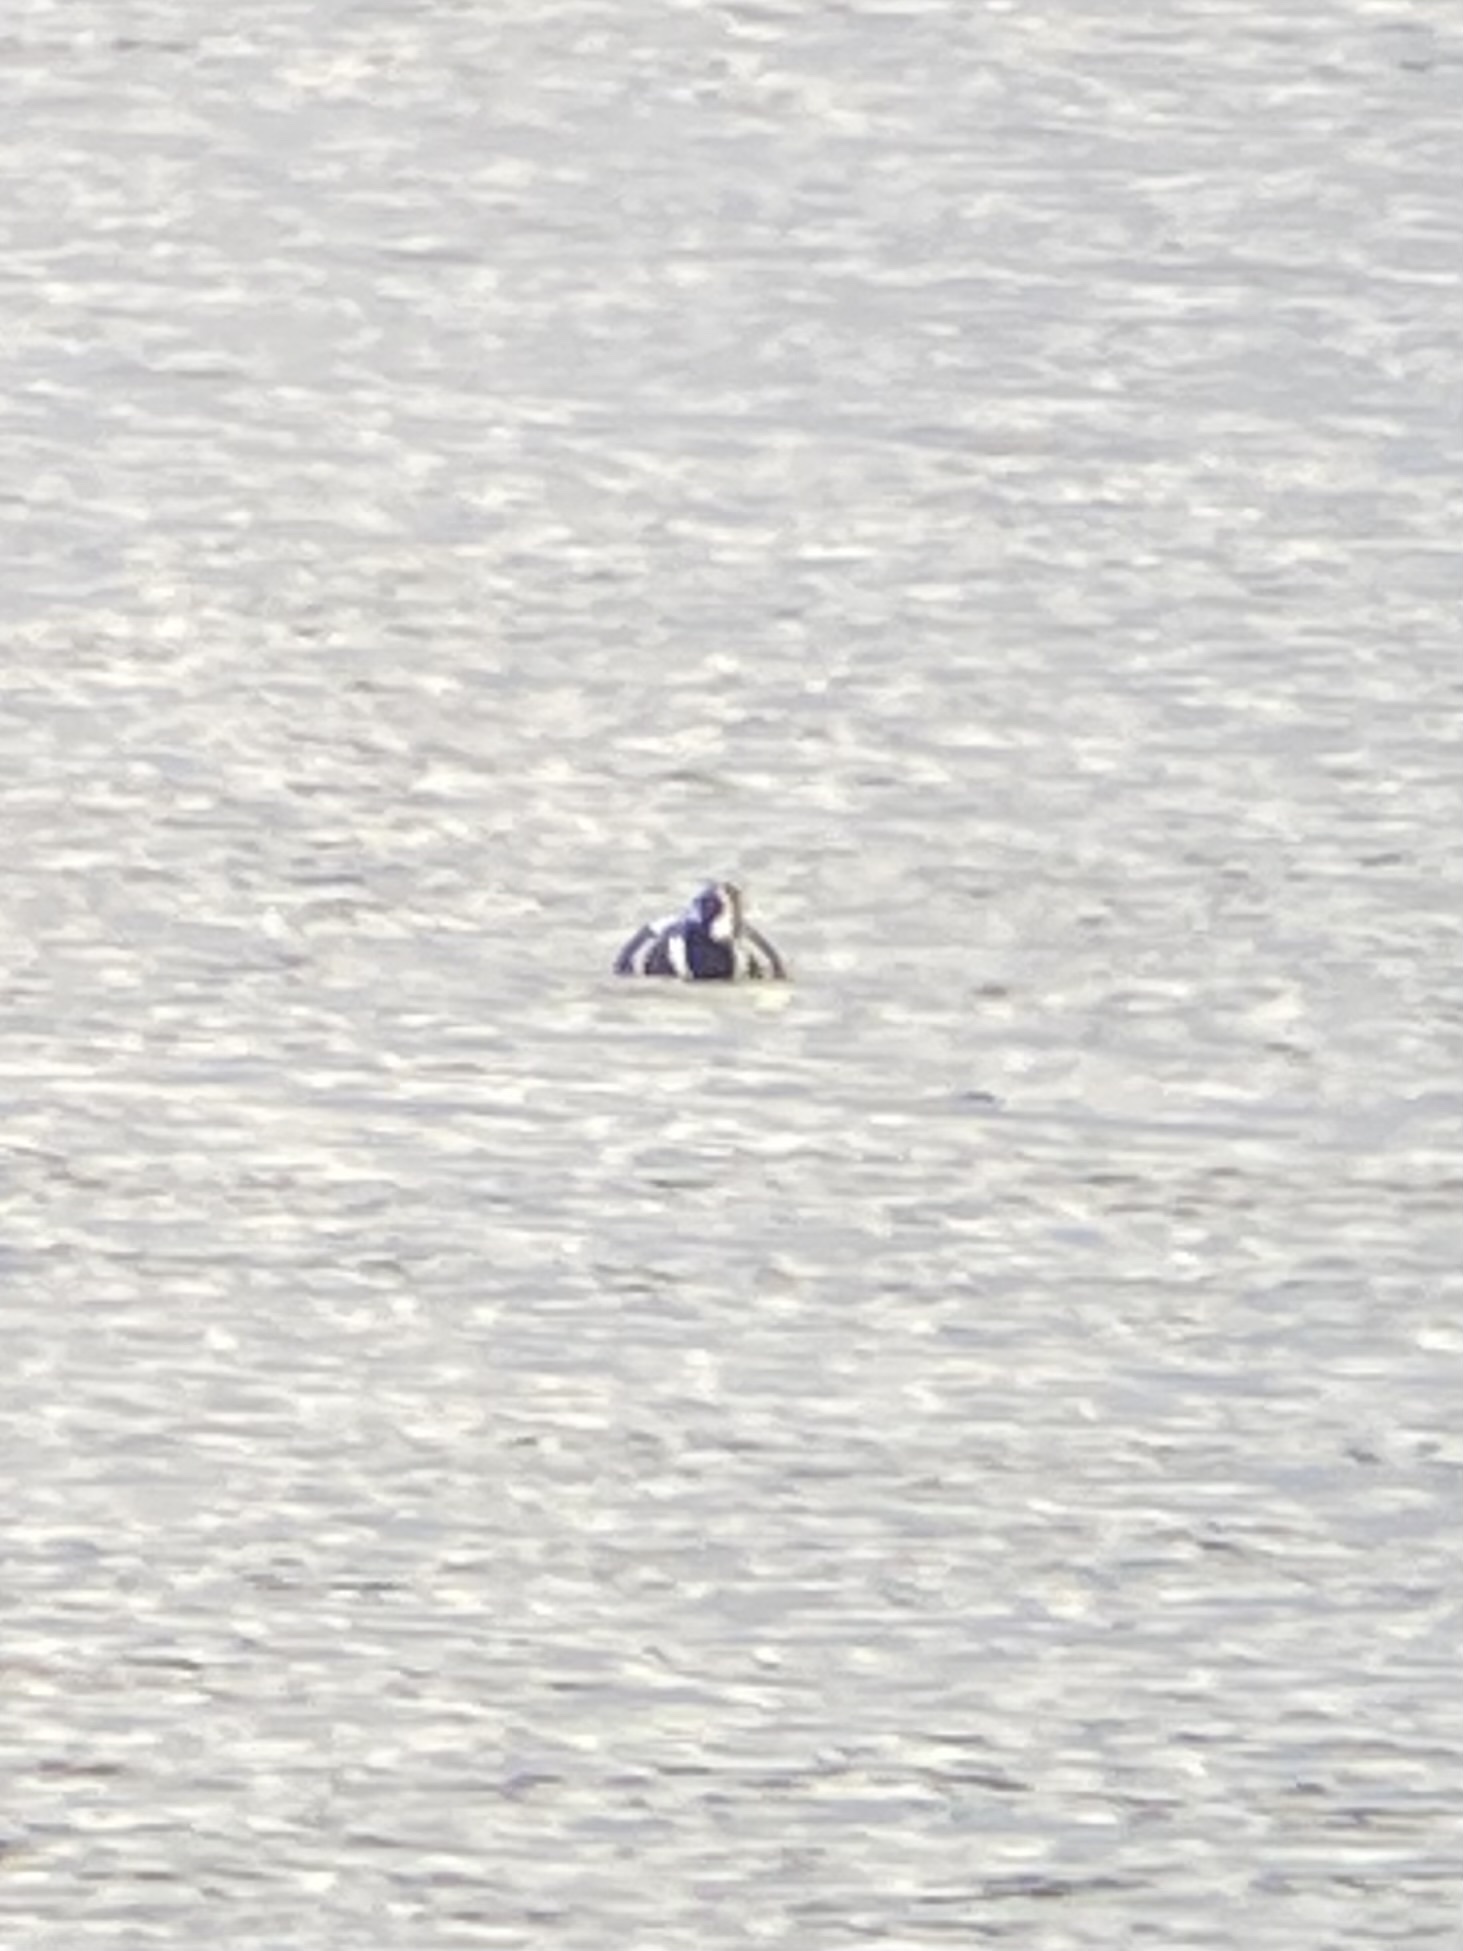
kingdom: Animalia
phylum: Chordata
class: Aves
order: Anseriformes
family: Anatidae
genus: Histrionicus
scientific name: Histrionicus histrionicus
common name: Harlequin duck
